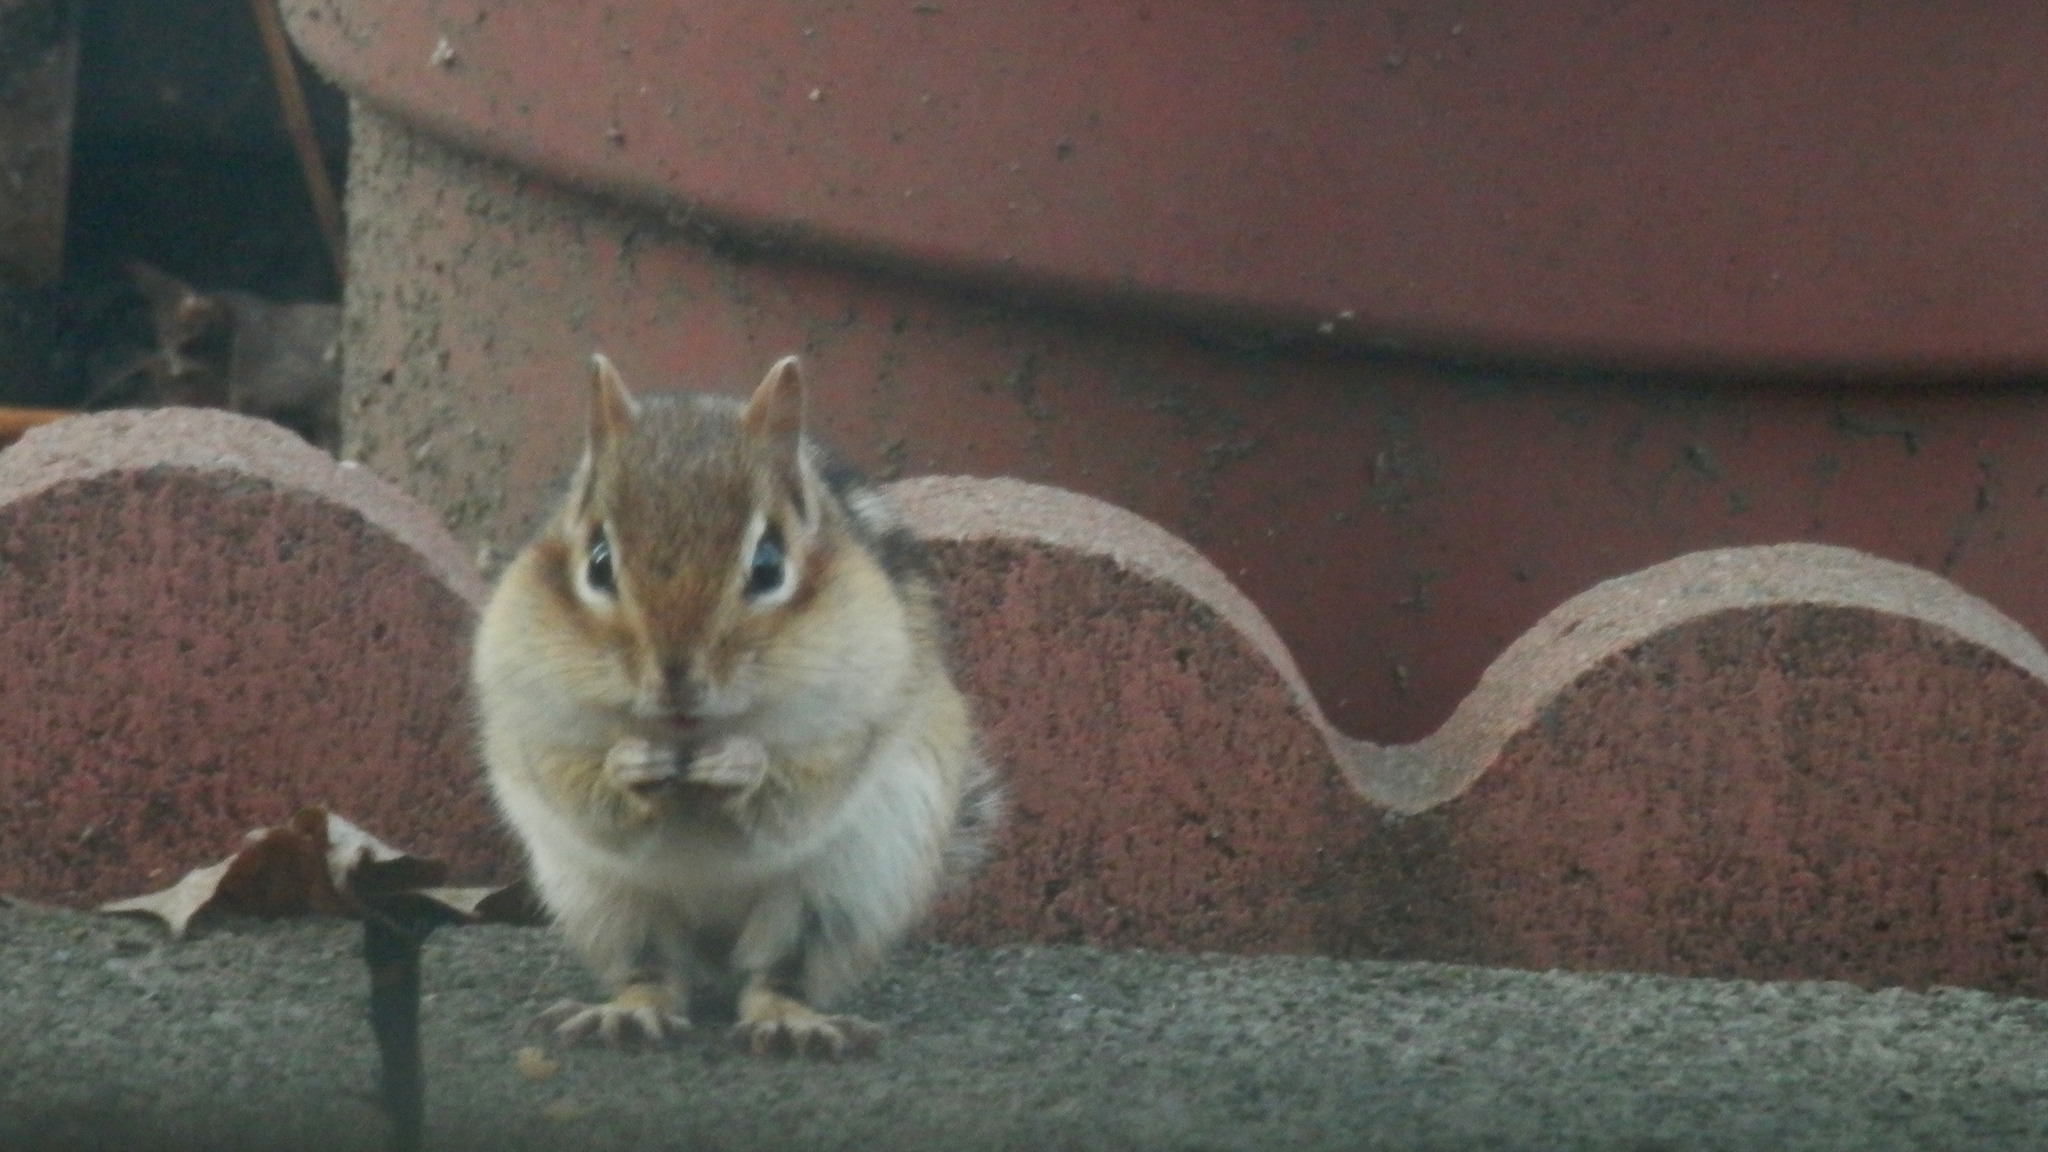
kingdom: Animalia
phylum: Chordata
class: Mammalia
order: Rodentia
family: Sciuridae
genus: Tamias
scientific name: Tamias striatus
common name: Eastern chipmunk
